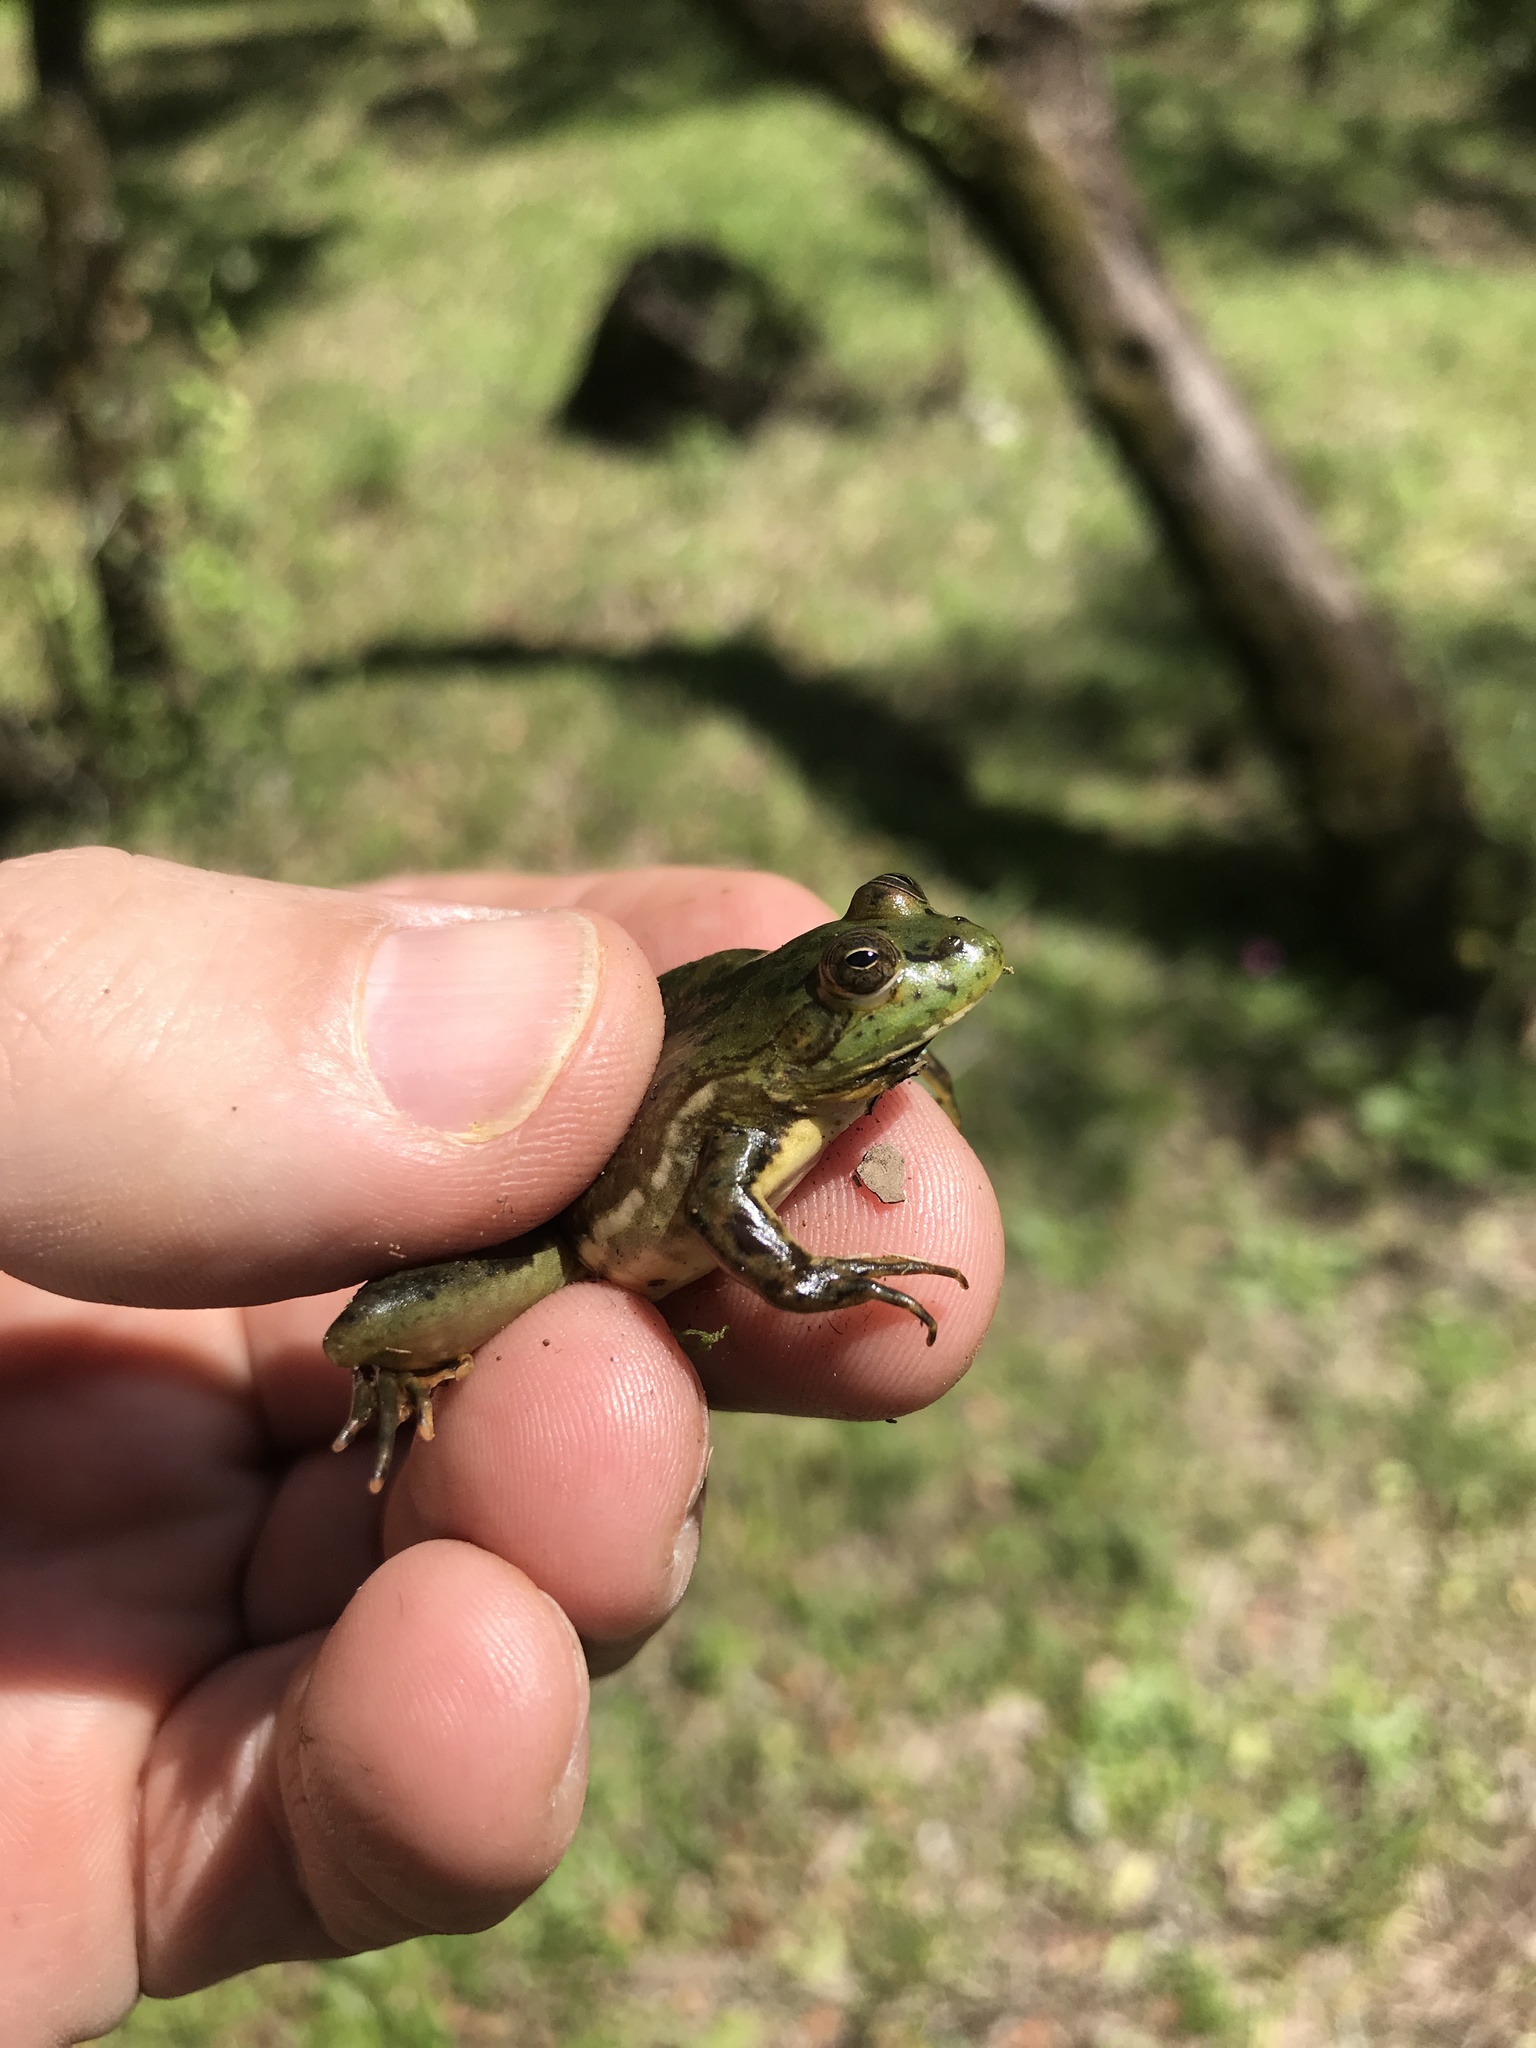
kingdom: Animalia
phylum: Chordata
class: Amphibia
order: Anura
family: Hylidae
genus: Pseudis
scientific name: Pseudis minuta
